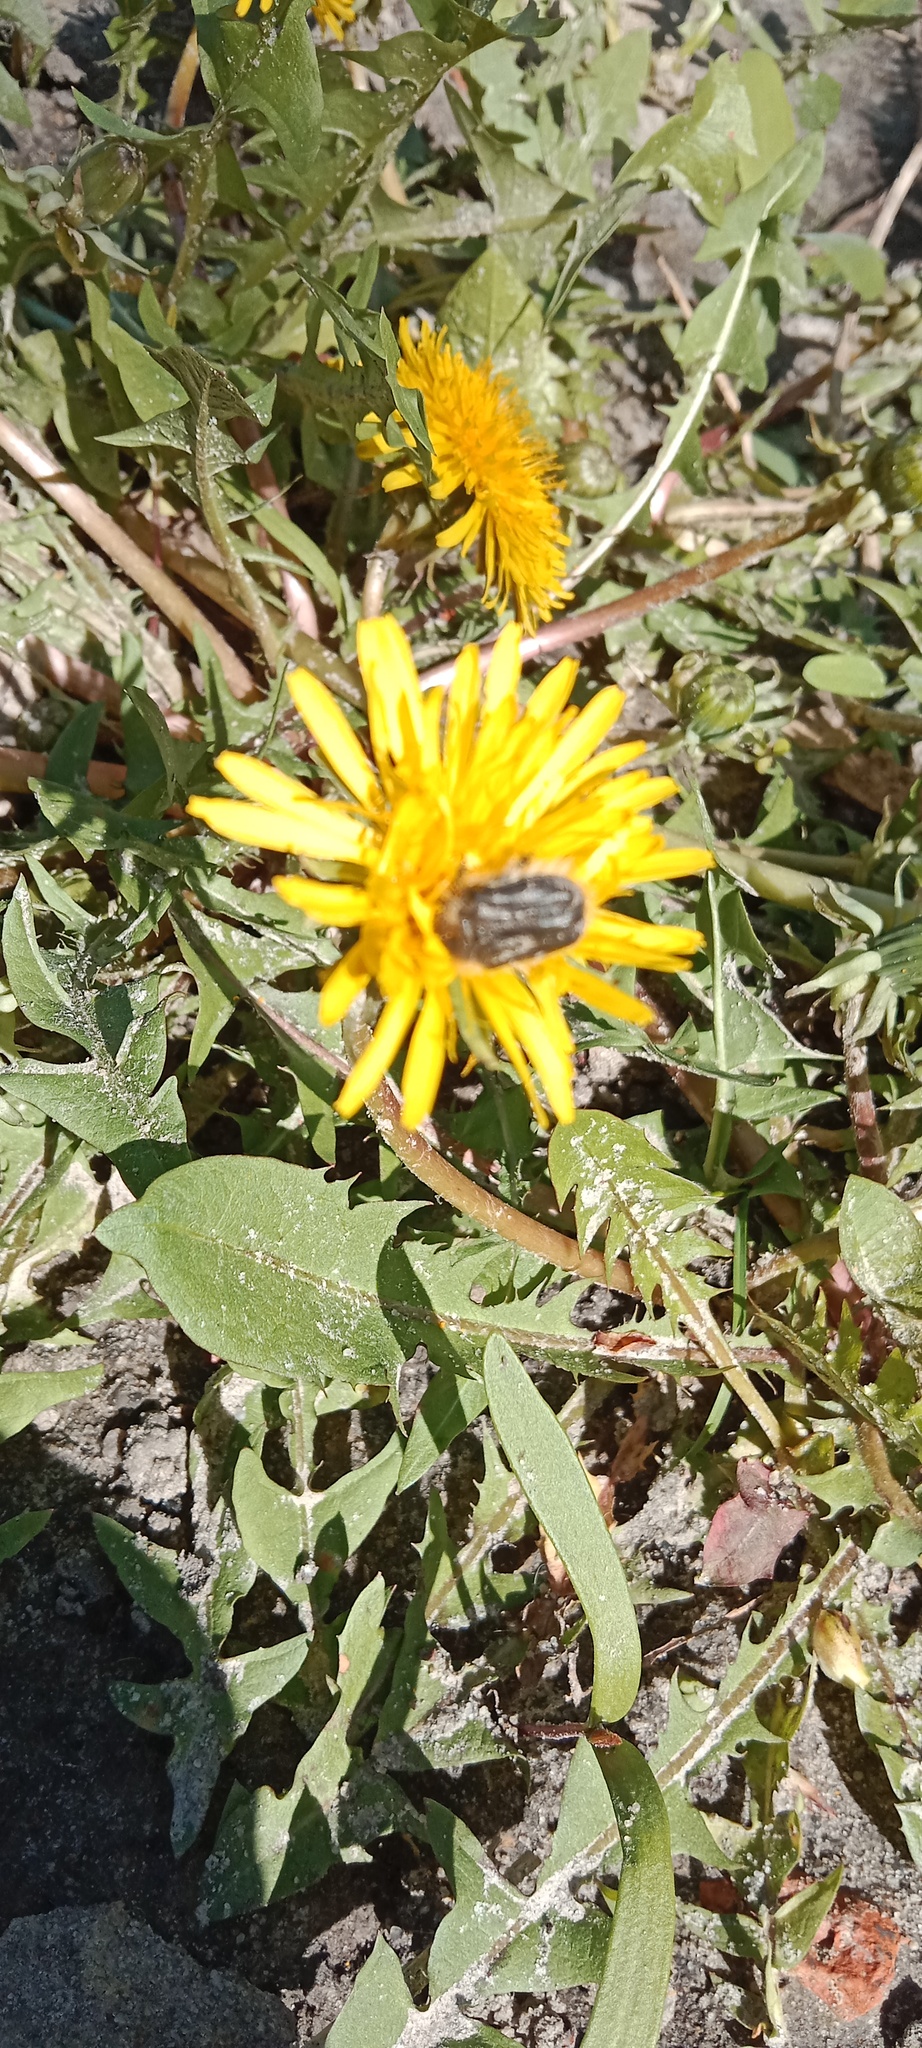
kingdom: Animalia
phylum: Arthropoda
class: Insecta
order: Coleoptera
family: Scarabaeidae
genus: Tropinota
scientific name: Tropinota hirta
